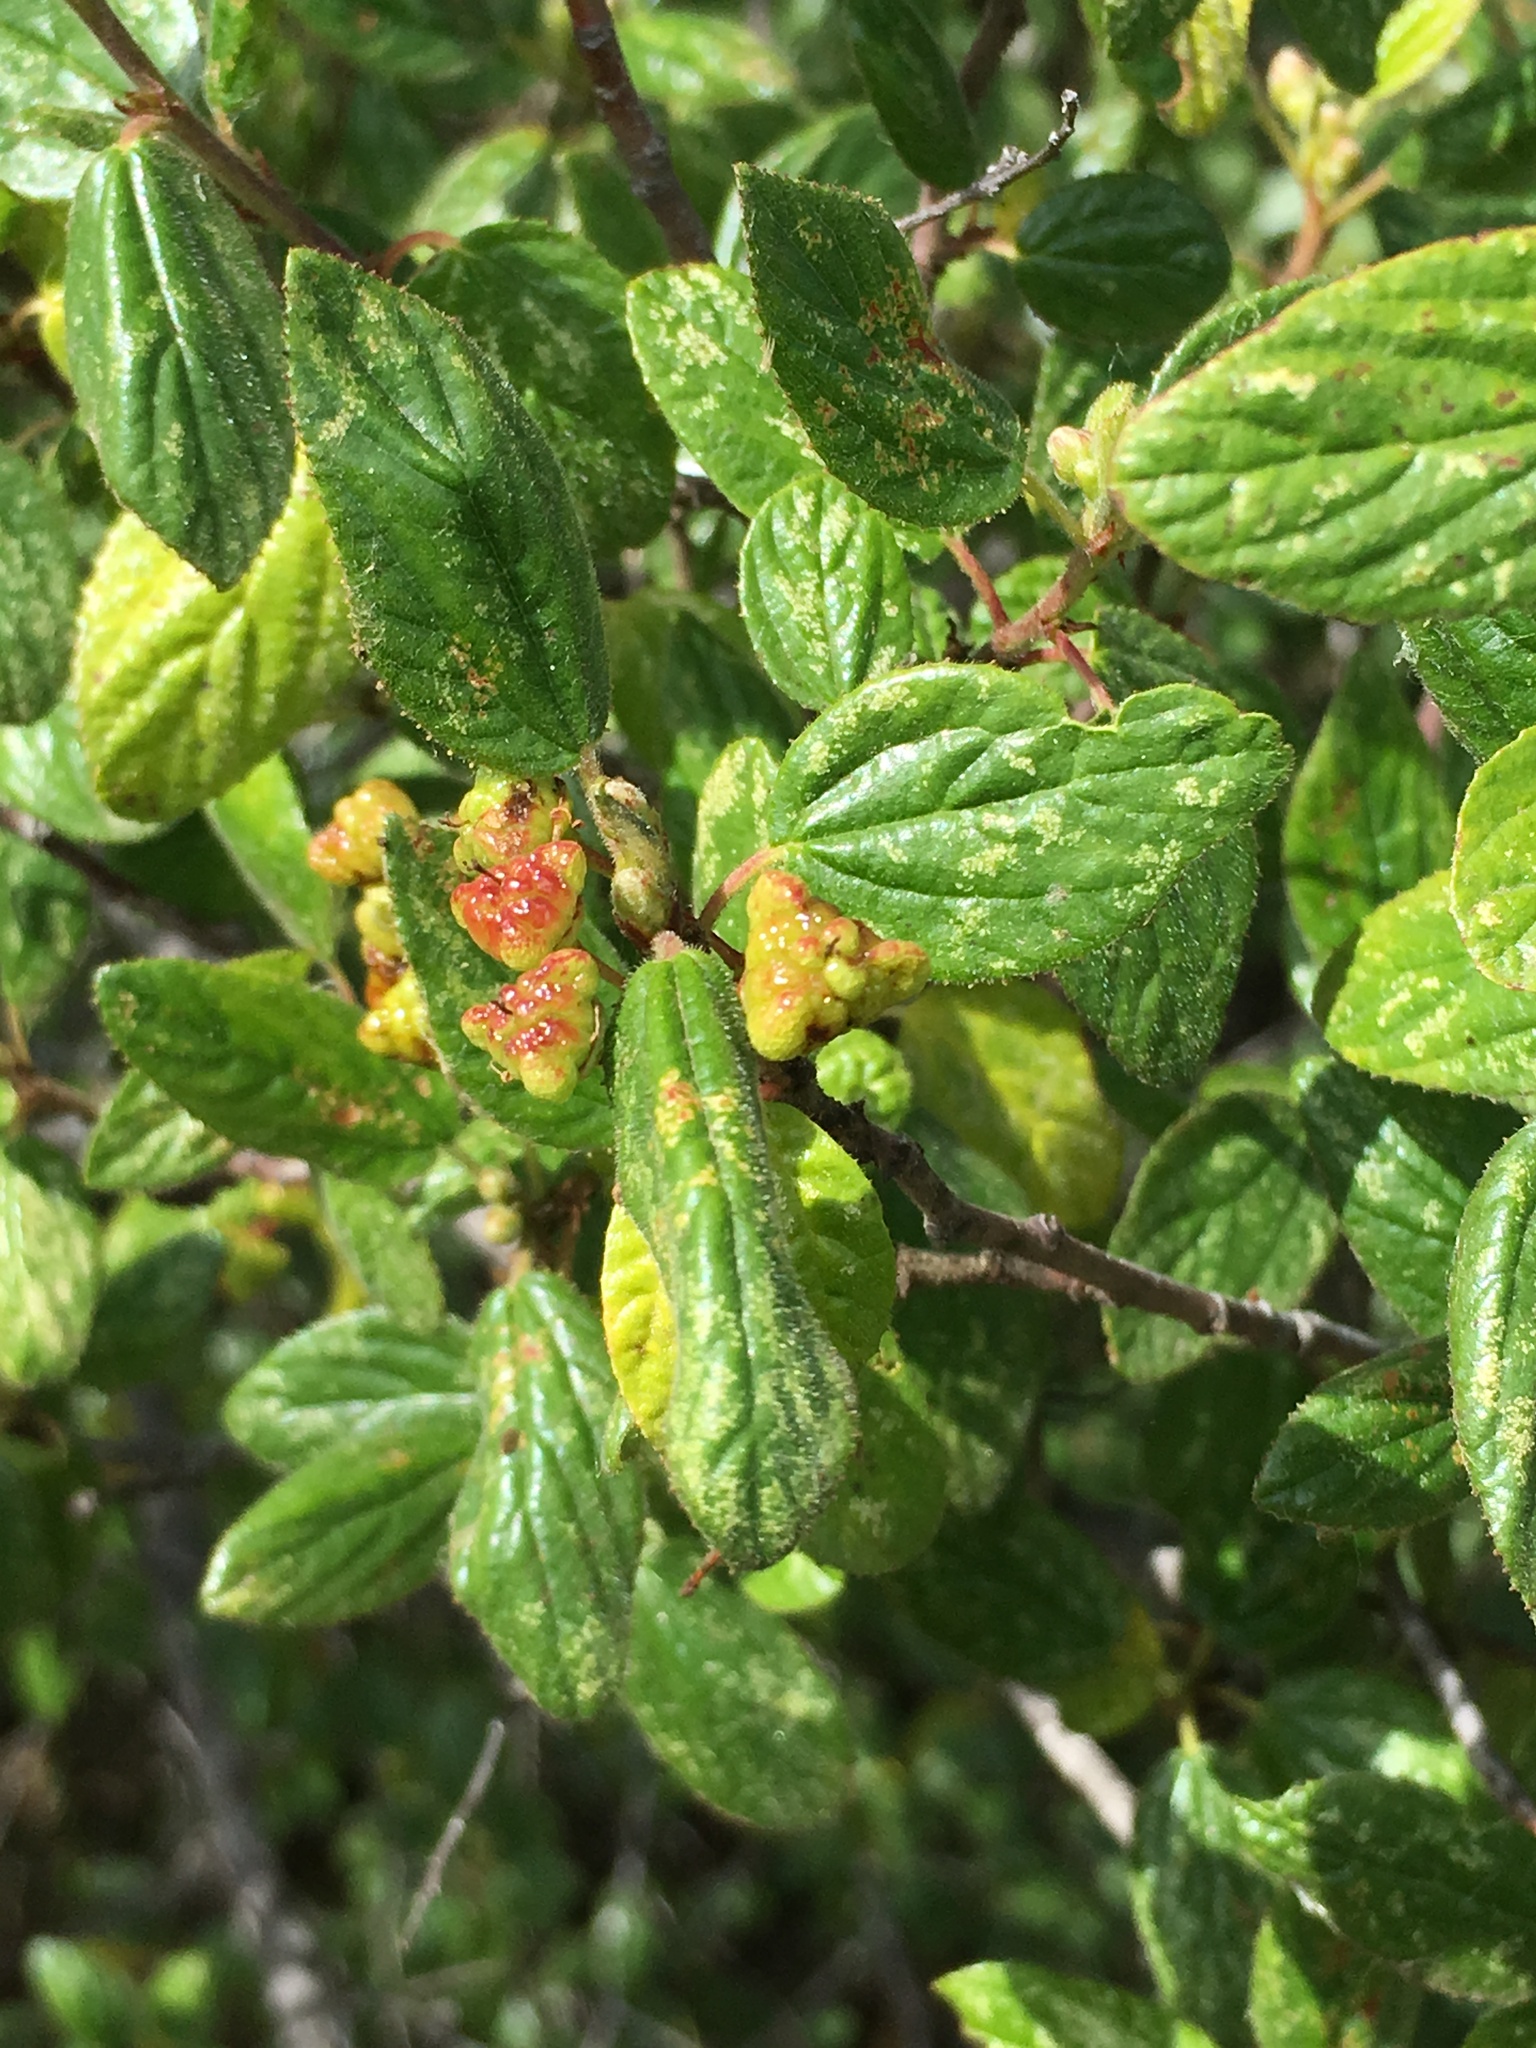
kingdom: Plantae
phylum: Tracheophyta
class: Magnoliopsida
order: Rosales
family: Rhamnaceae
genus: Ceanothus
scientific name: Ceanothus oliganthus
